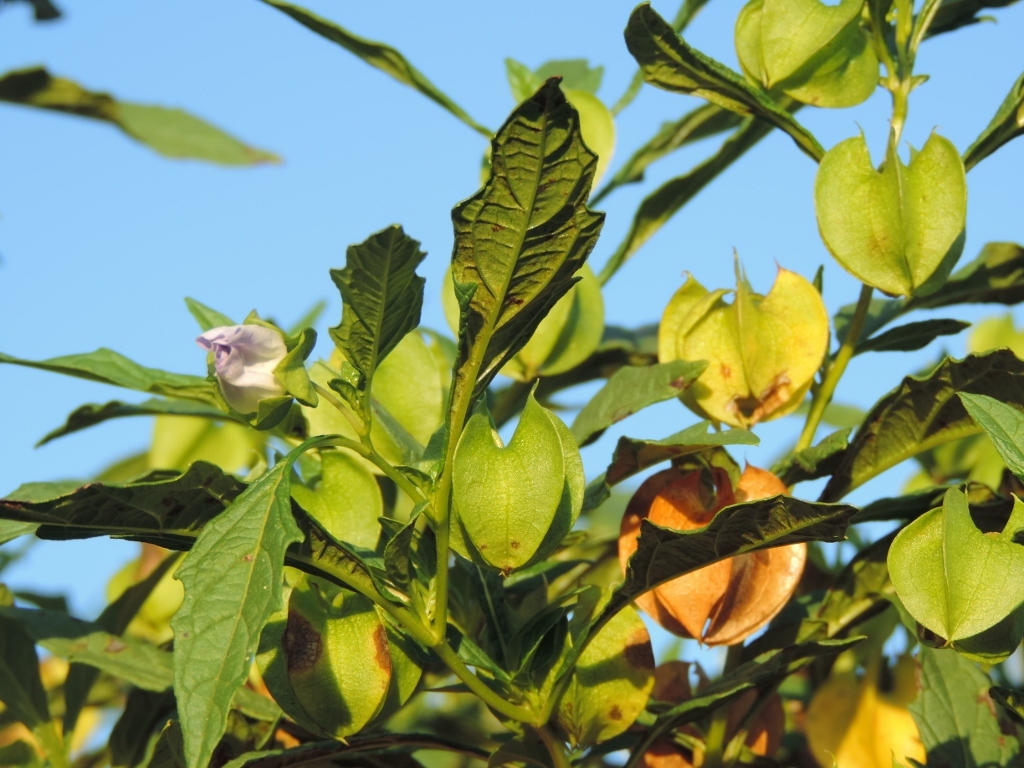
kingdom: Plantae
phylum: Tracheophyta
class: Magnoliopsida
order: Solanales
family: Solanaceae
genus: Nicandra
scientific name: Nicandra physalodes
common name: Apple-of-peru
